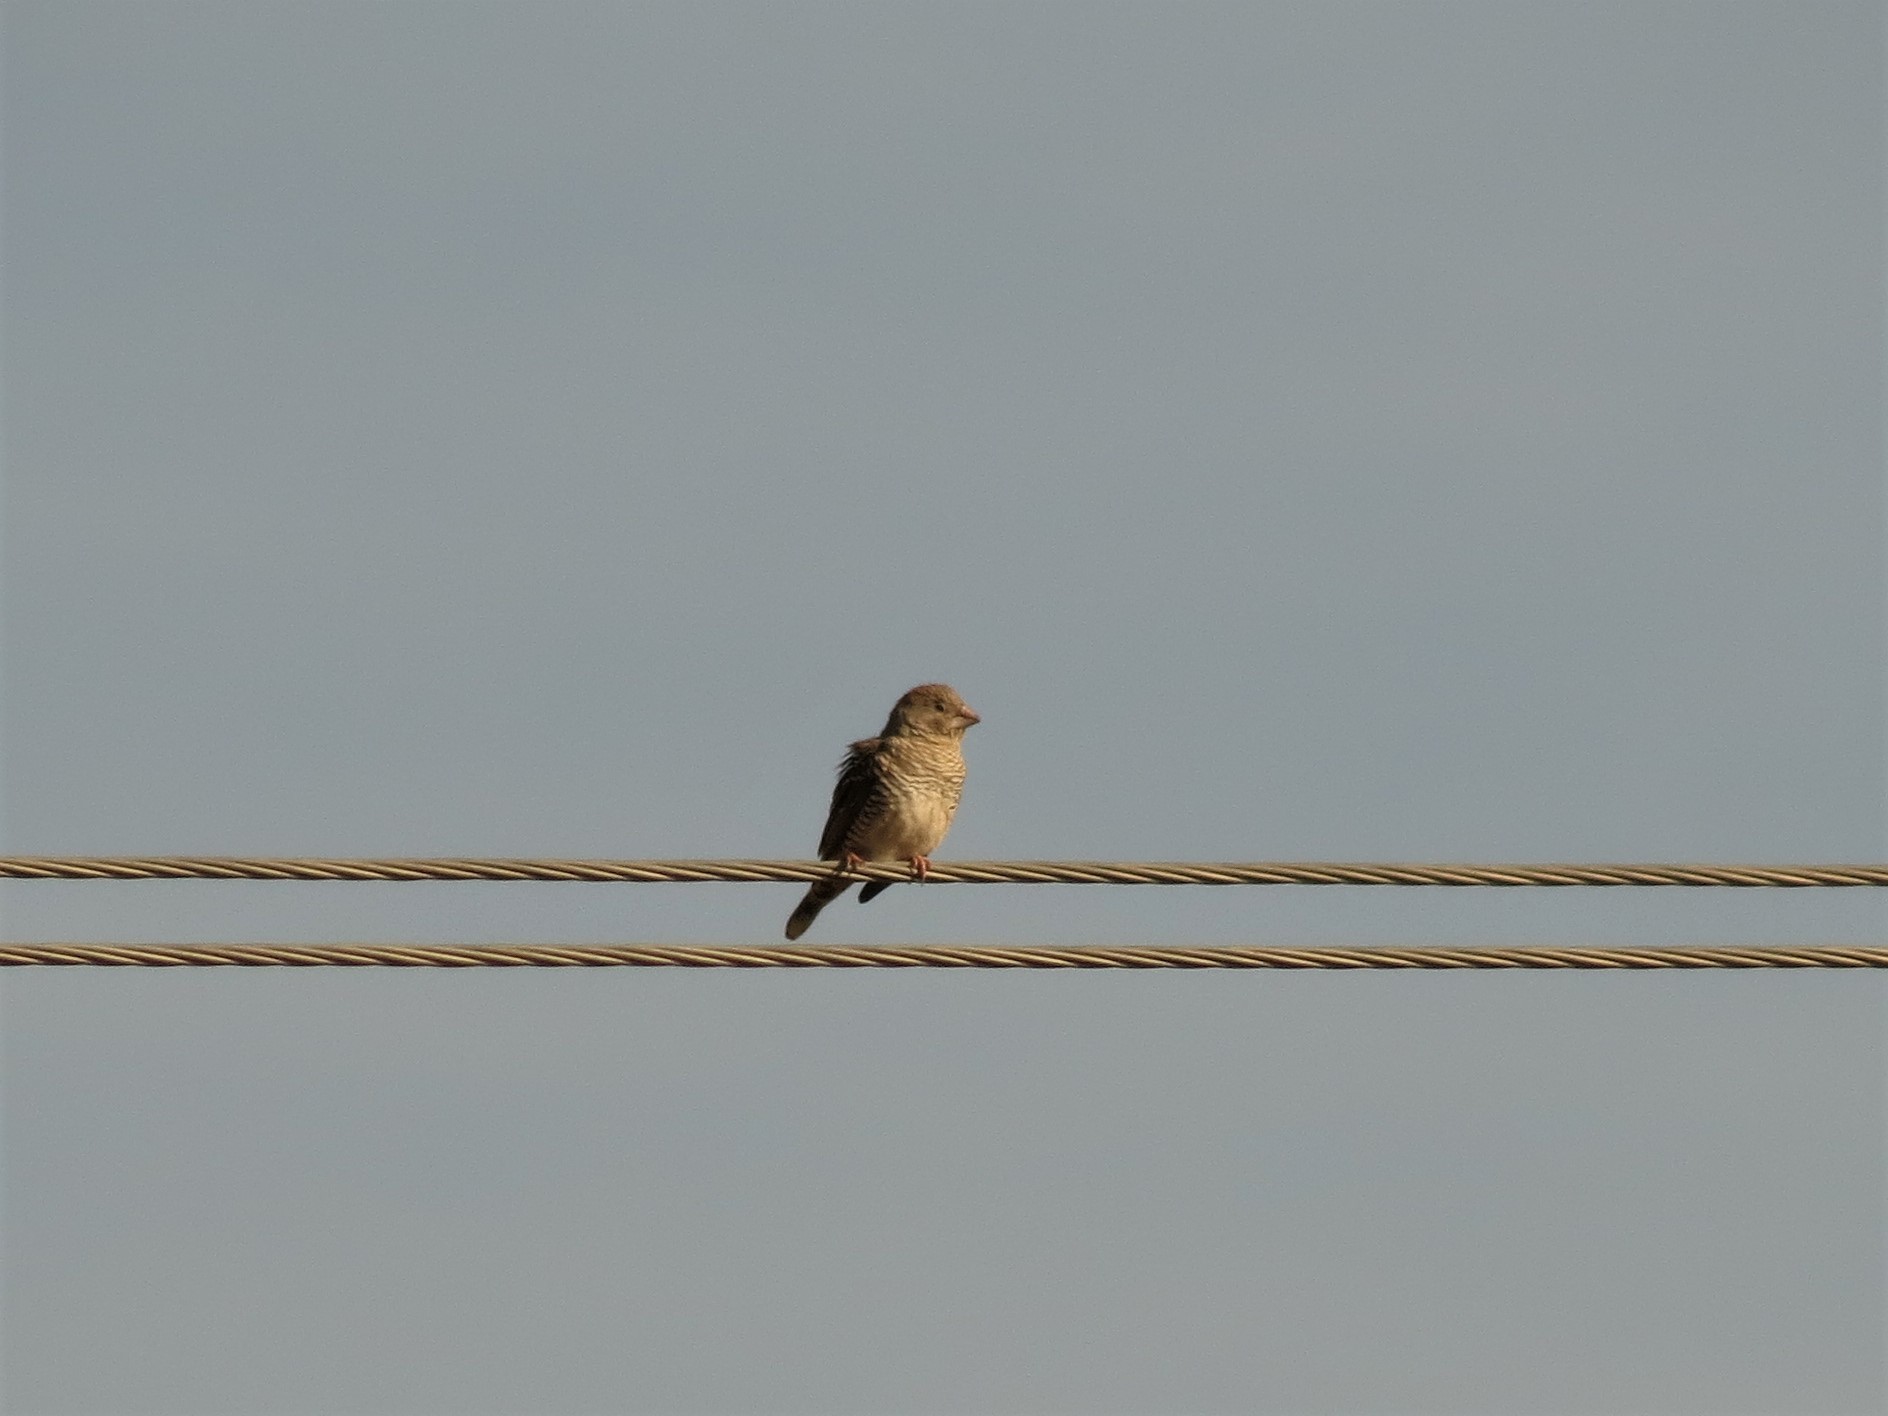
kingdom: Animalia
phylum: Chordata
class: Aves
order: Passeriformes
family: Estrildidae
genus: Amadina
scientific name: Amadina erythrocephala
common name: Red-headed finch
